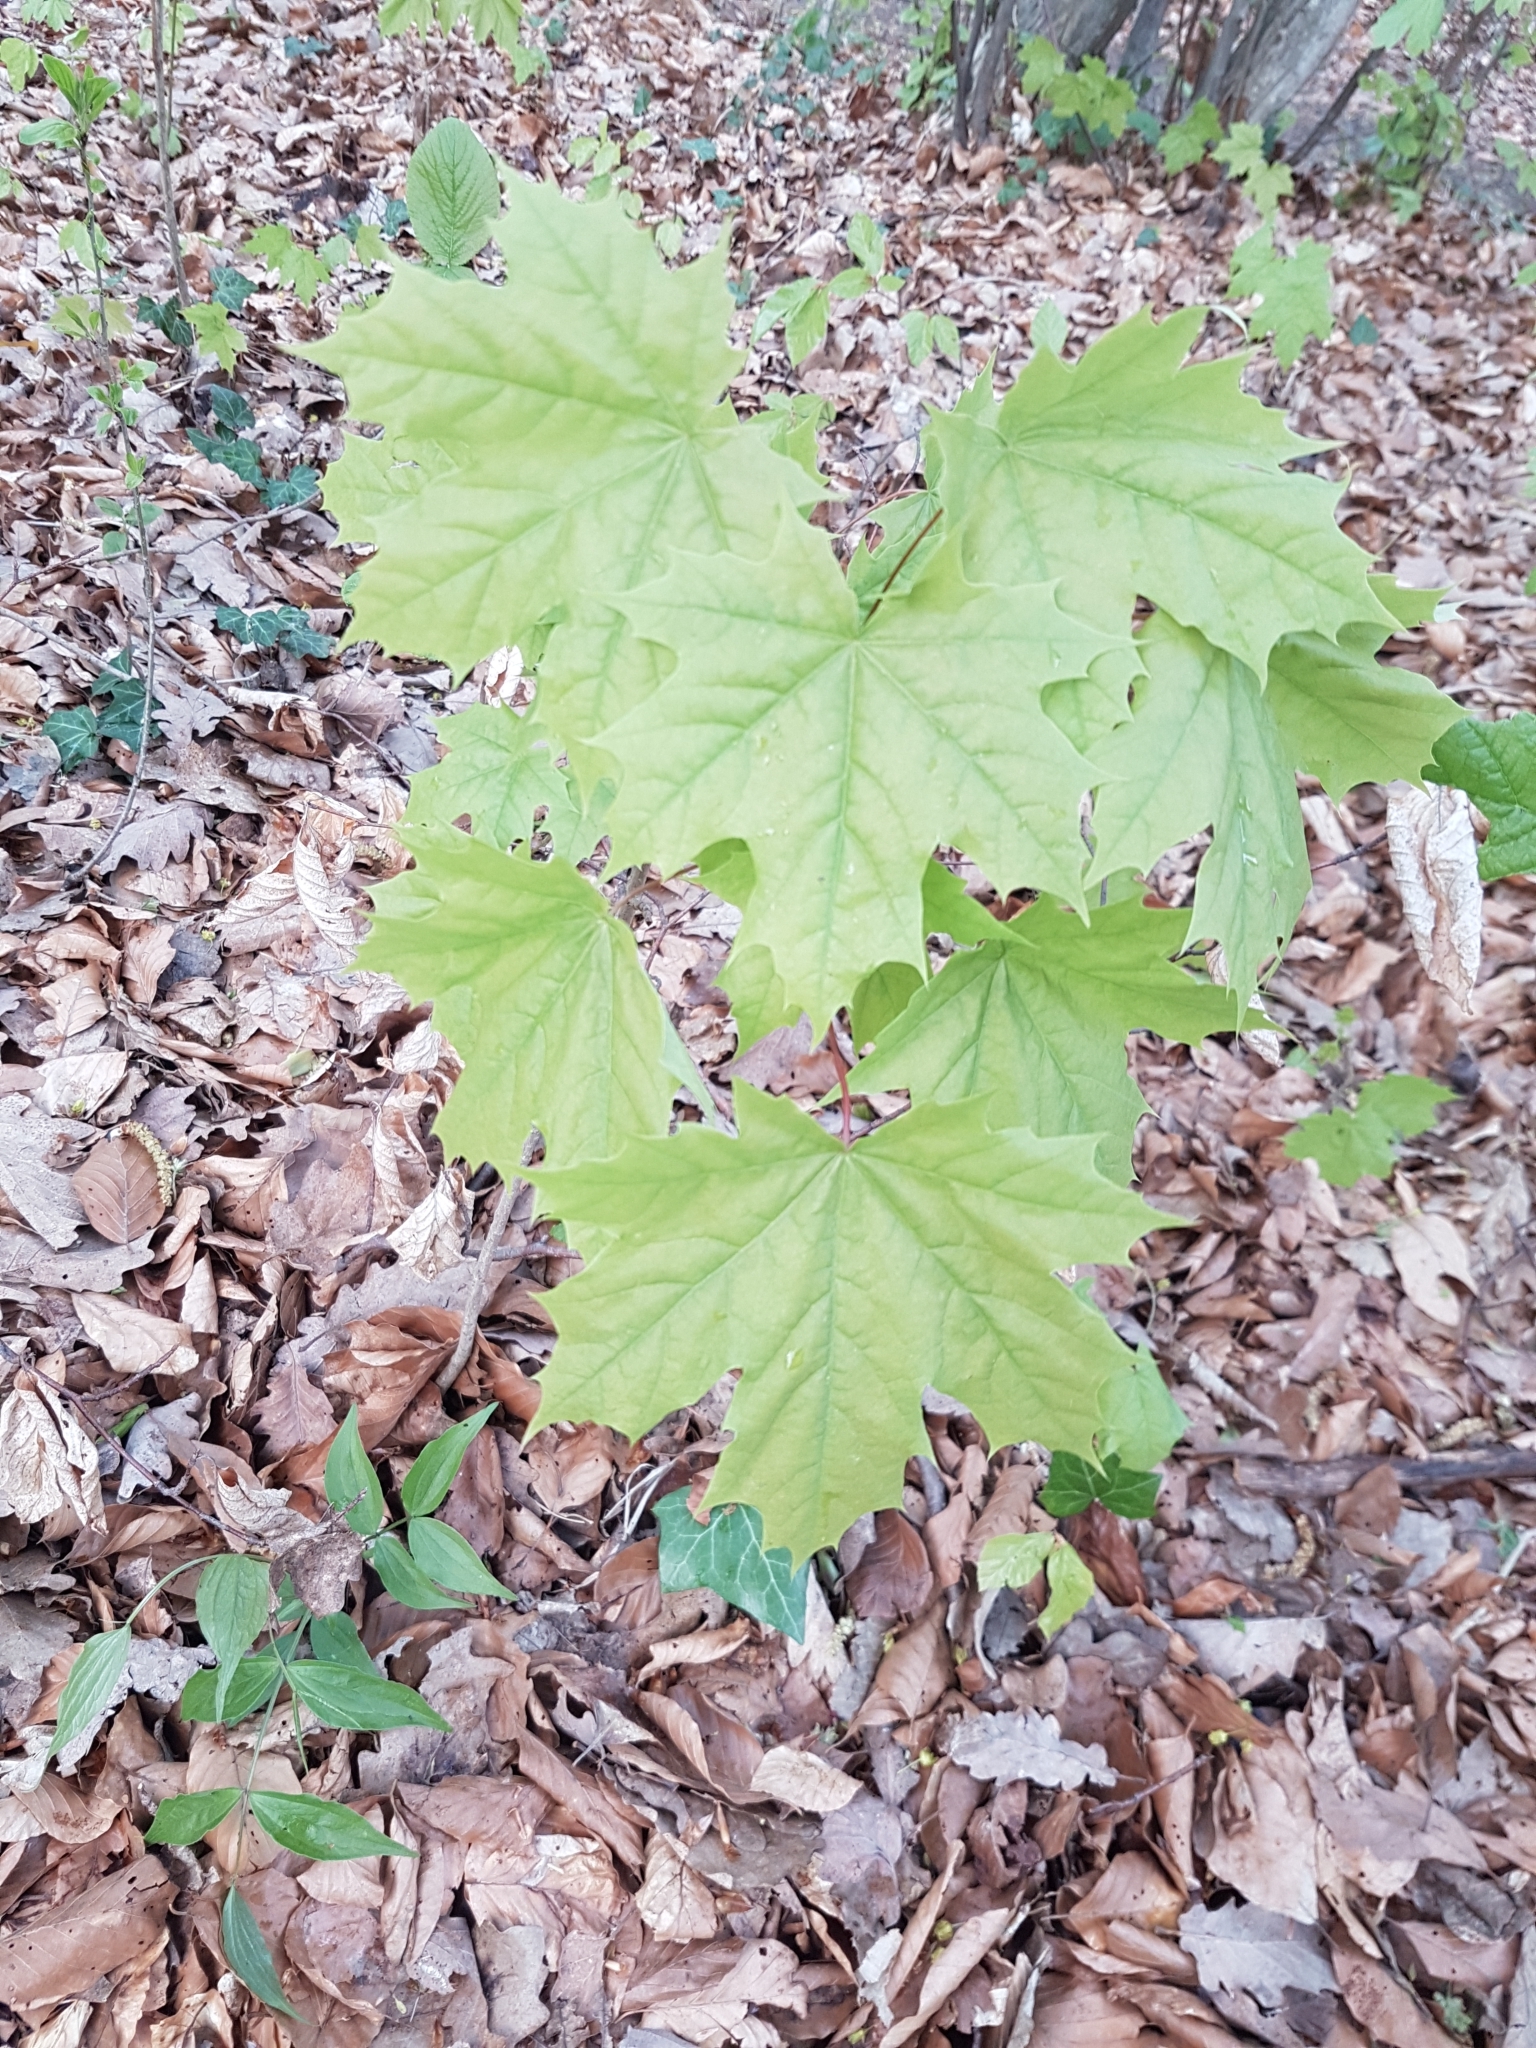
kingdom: Plantae
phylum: Tracheophyta
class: Magnoliopsida
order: Sapindales
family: Sapindaceae
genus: Acer
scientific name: Acer platanoides
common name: Norway maple
